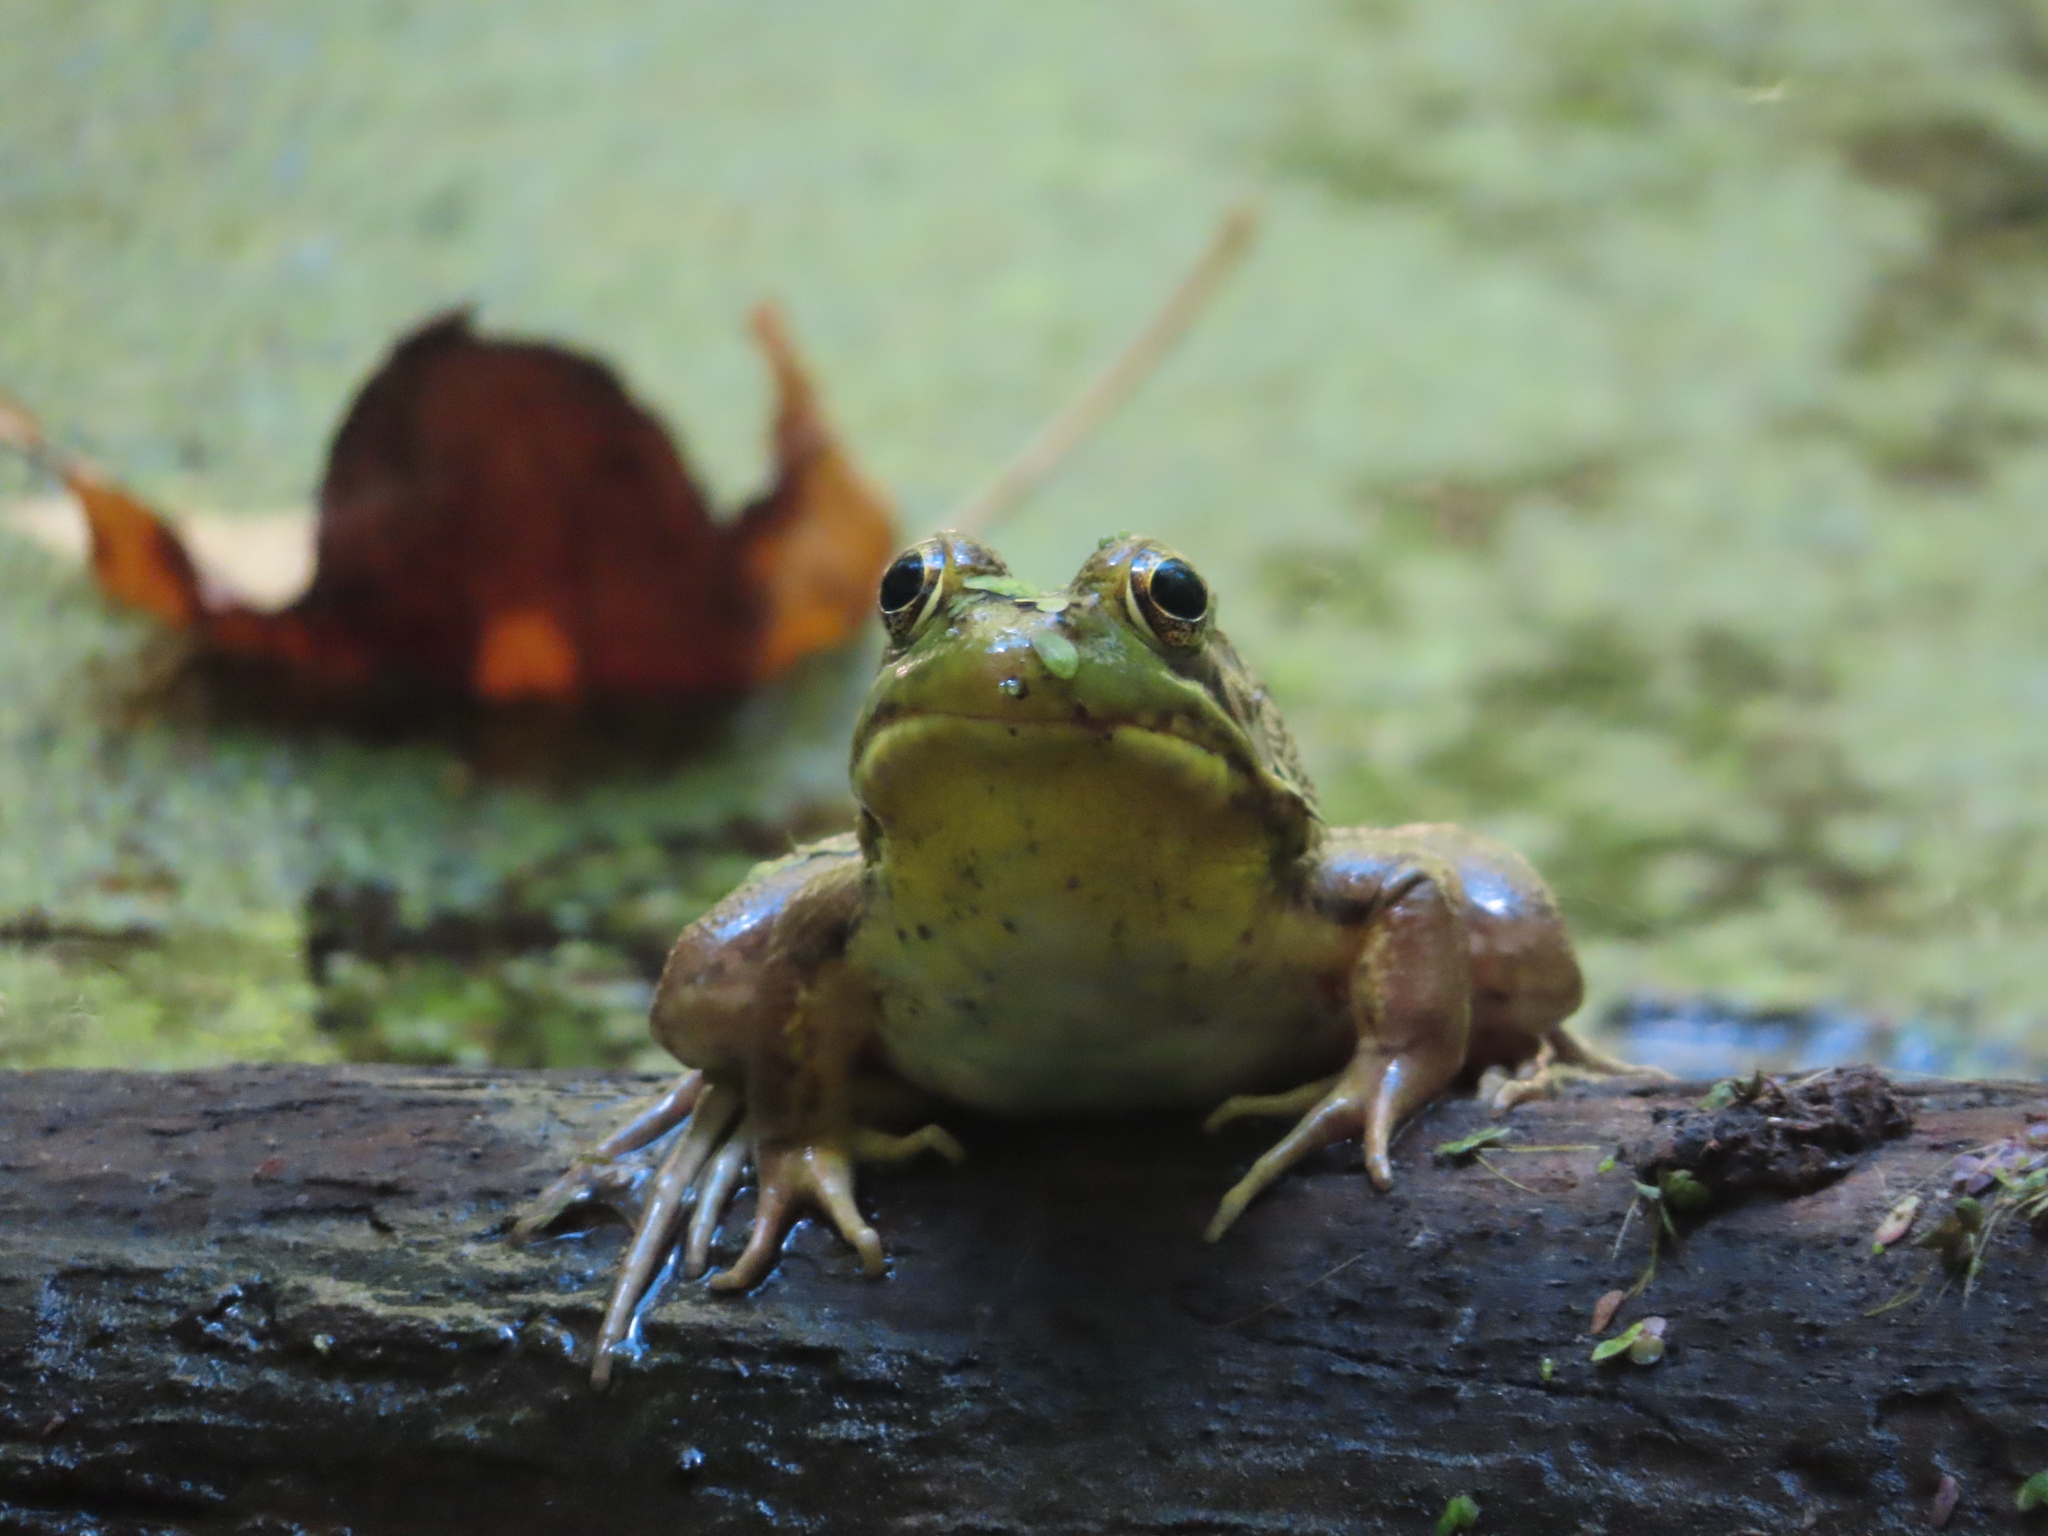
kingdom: Animalia
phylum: Chordata
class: Amphibia
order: Anura
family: Ranidae
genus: Lithobates
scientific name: Lithobates clamitans
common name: Green frog
